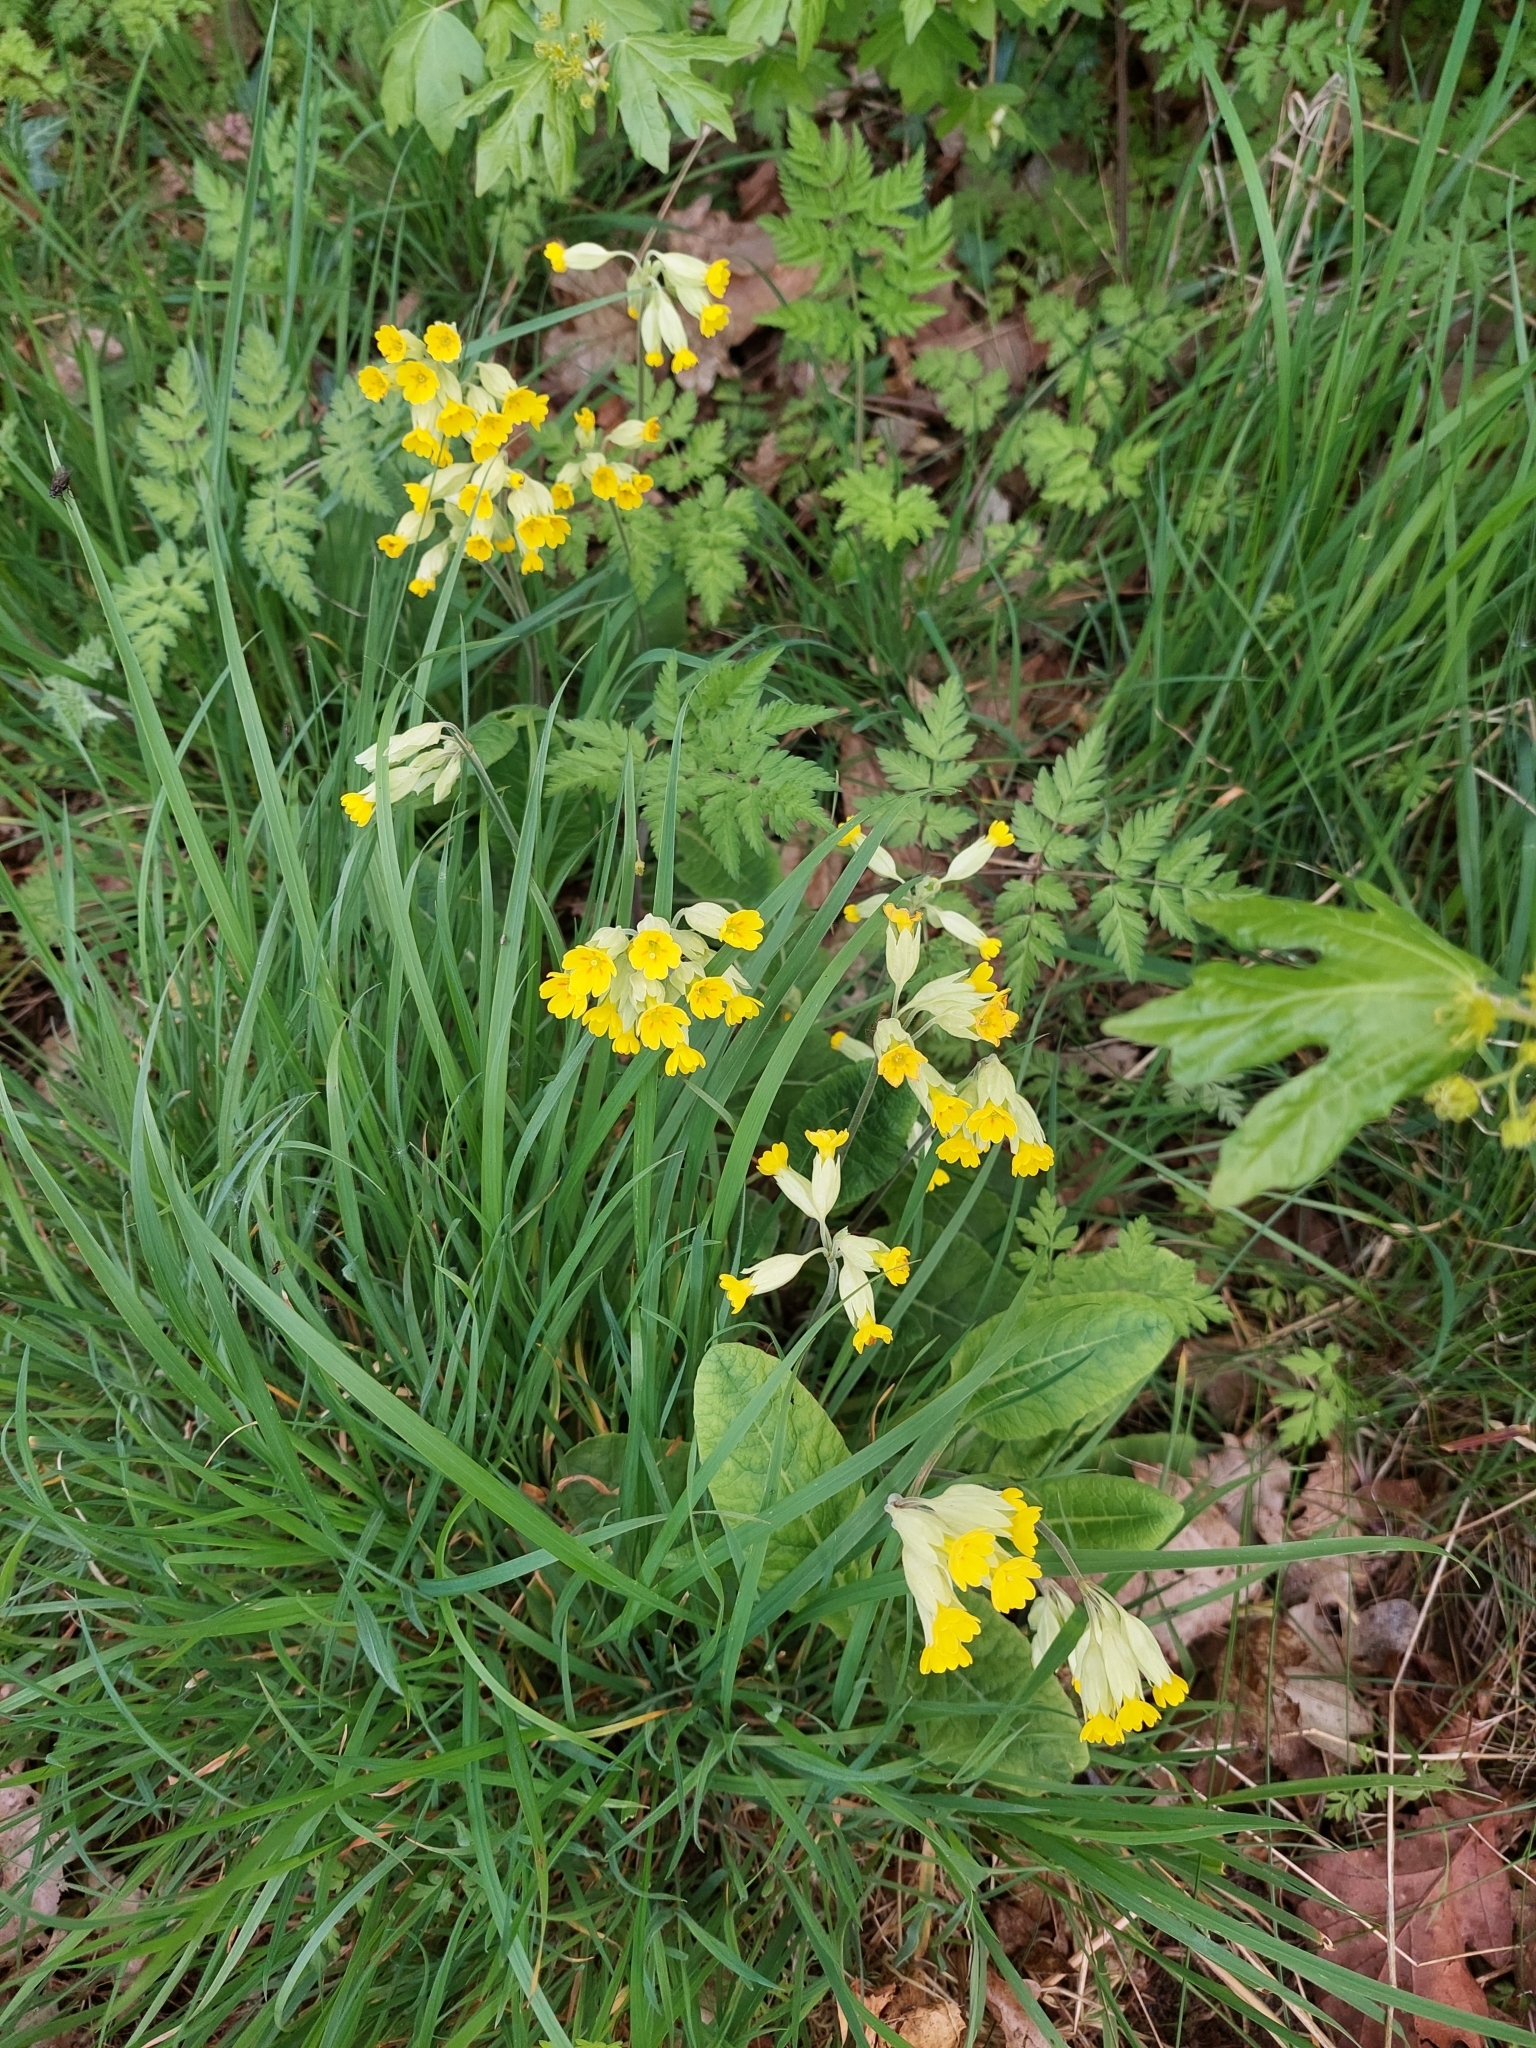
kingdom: Plantae
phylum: Tracheophyta
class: Magnoliopsida
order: Ericales
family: Primulaceae
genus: Primula
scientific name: Primula veris
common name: Cowslip
